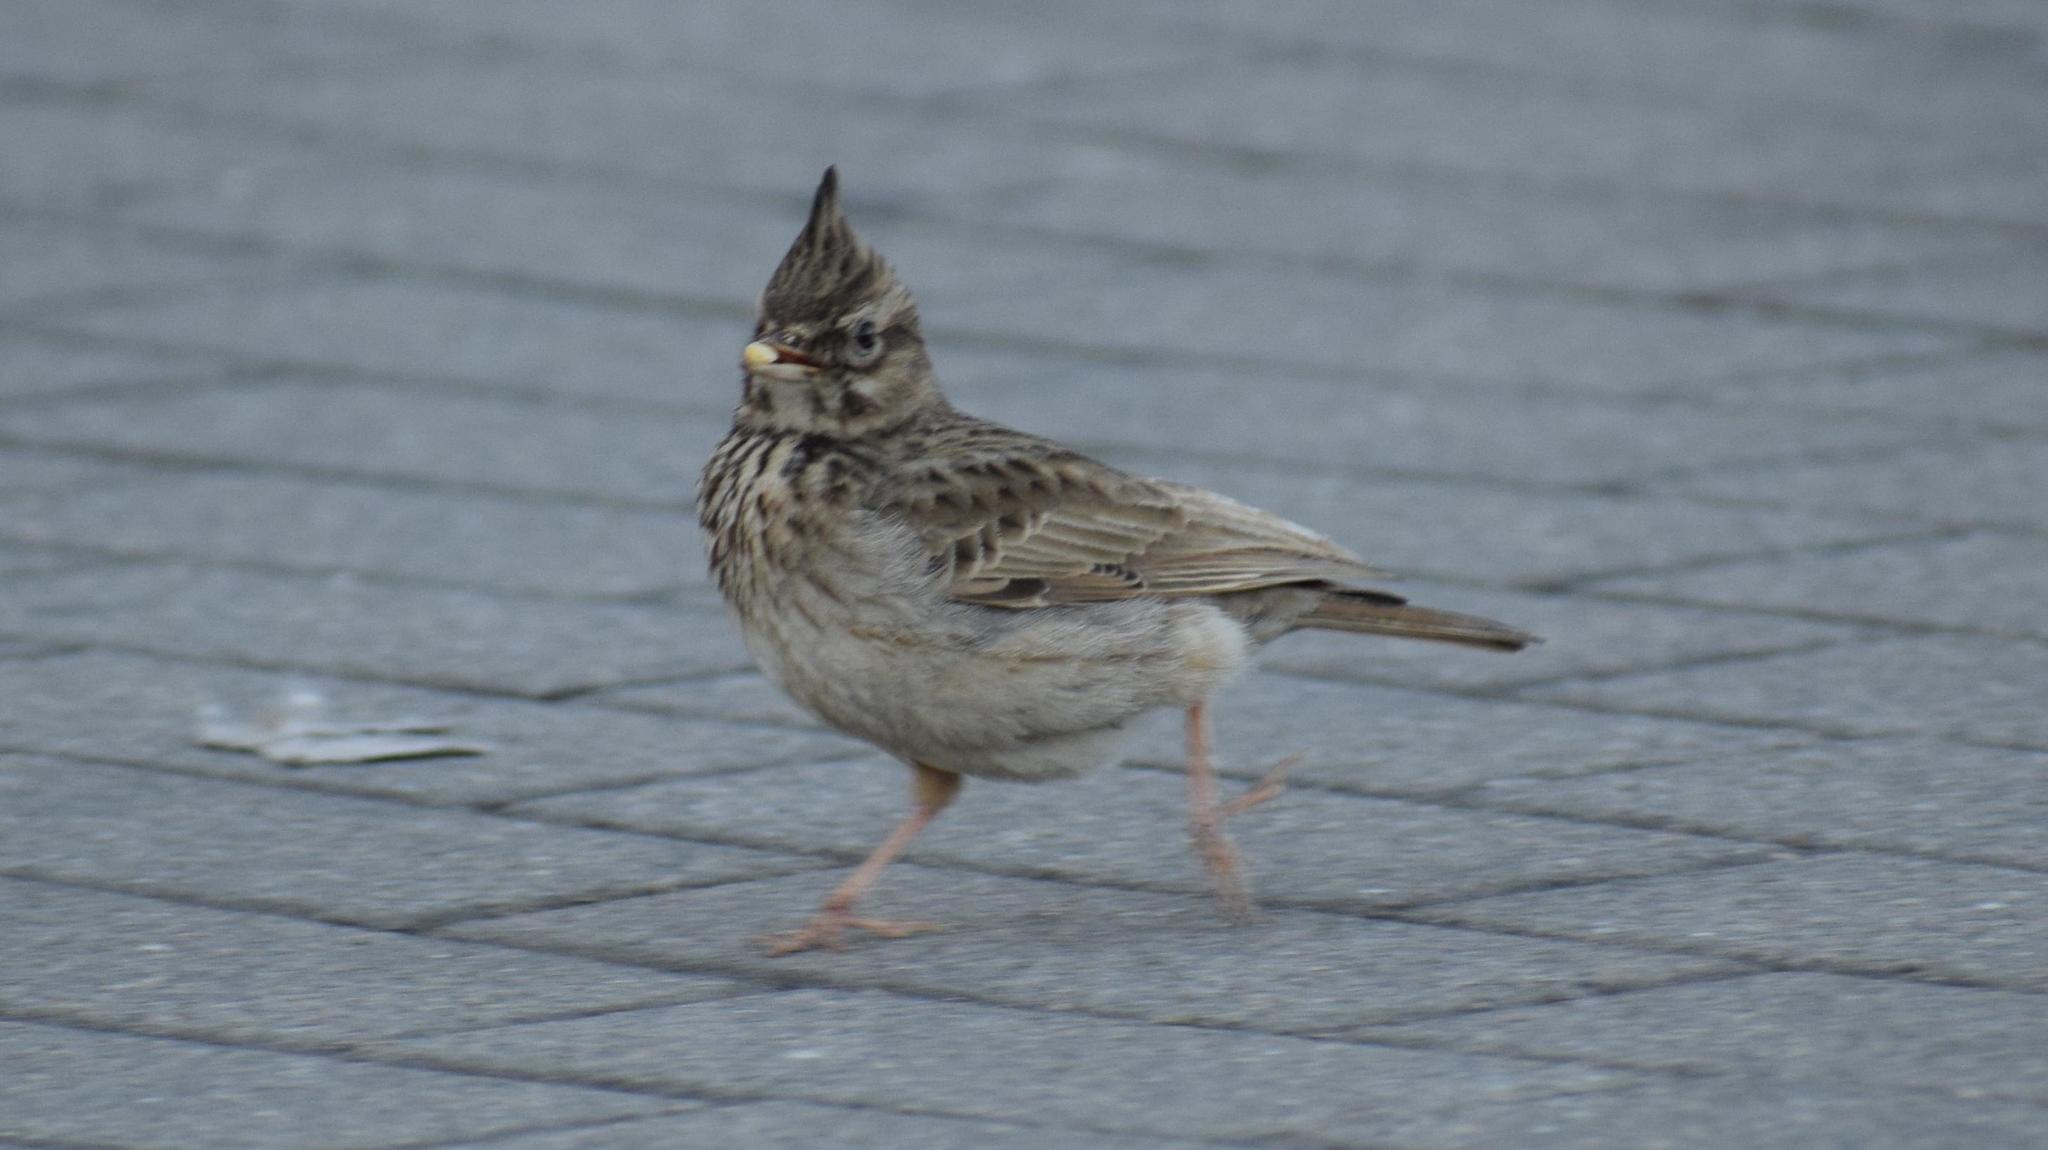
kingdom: Animalia
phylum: Chordata
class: Aves
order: Passeriformes
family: Alaudidae
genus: Galerida
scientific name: Galerida cristata
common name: Crested lark
